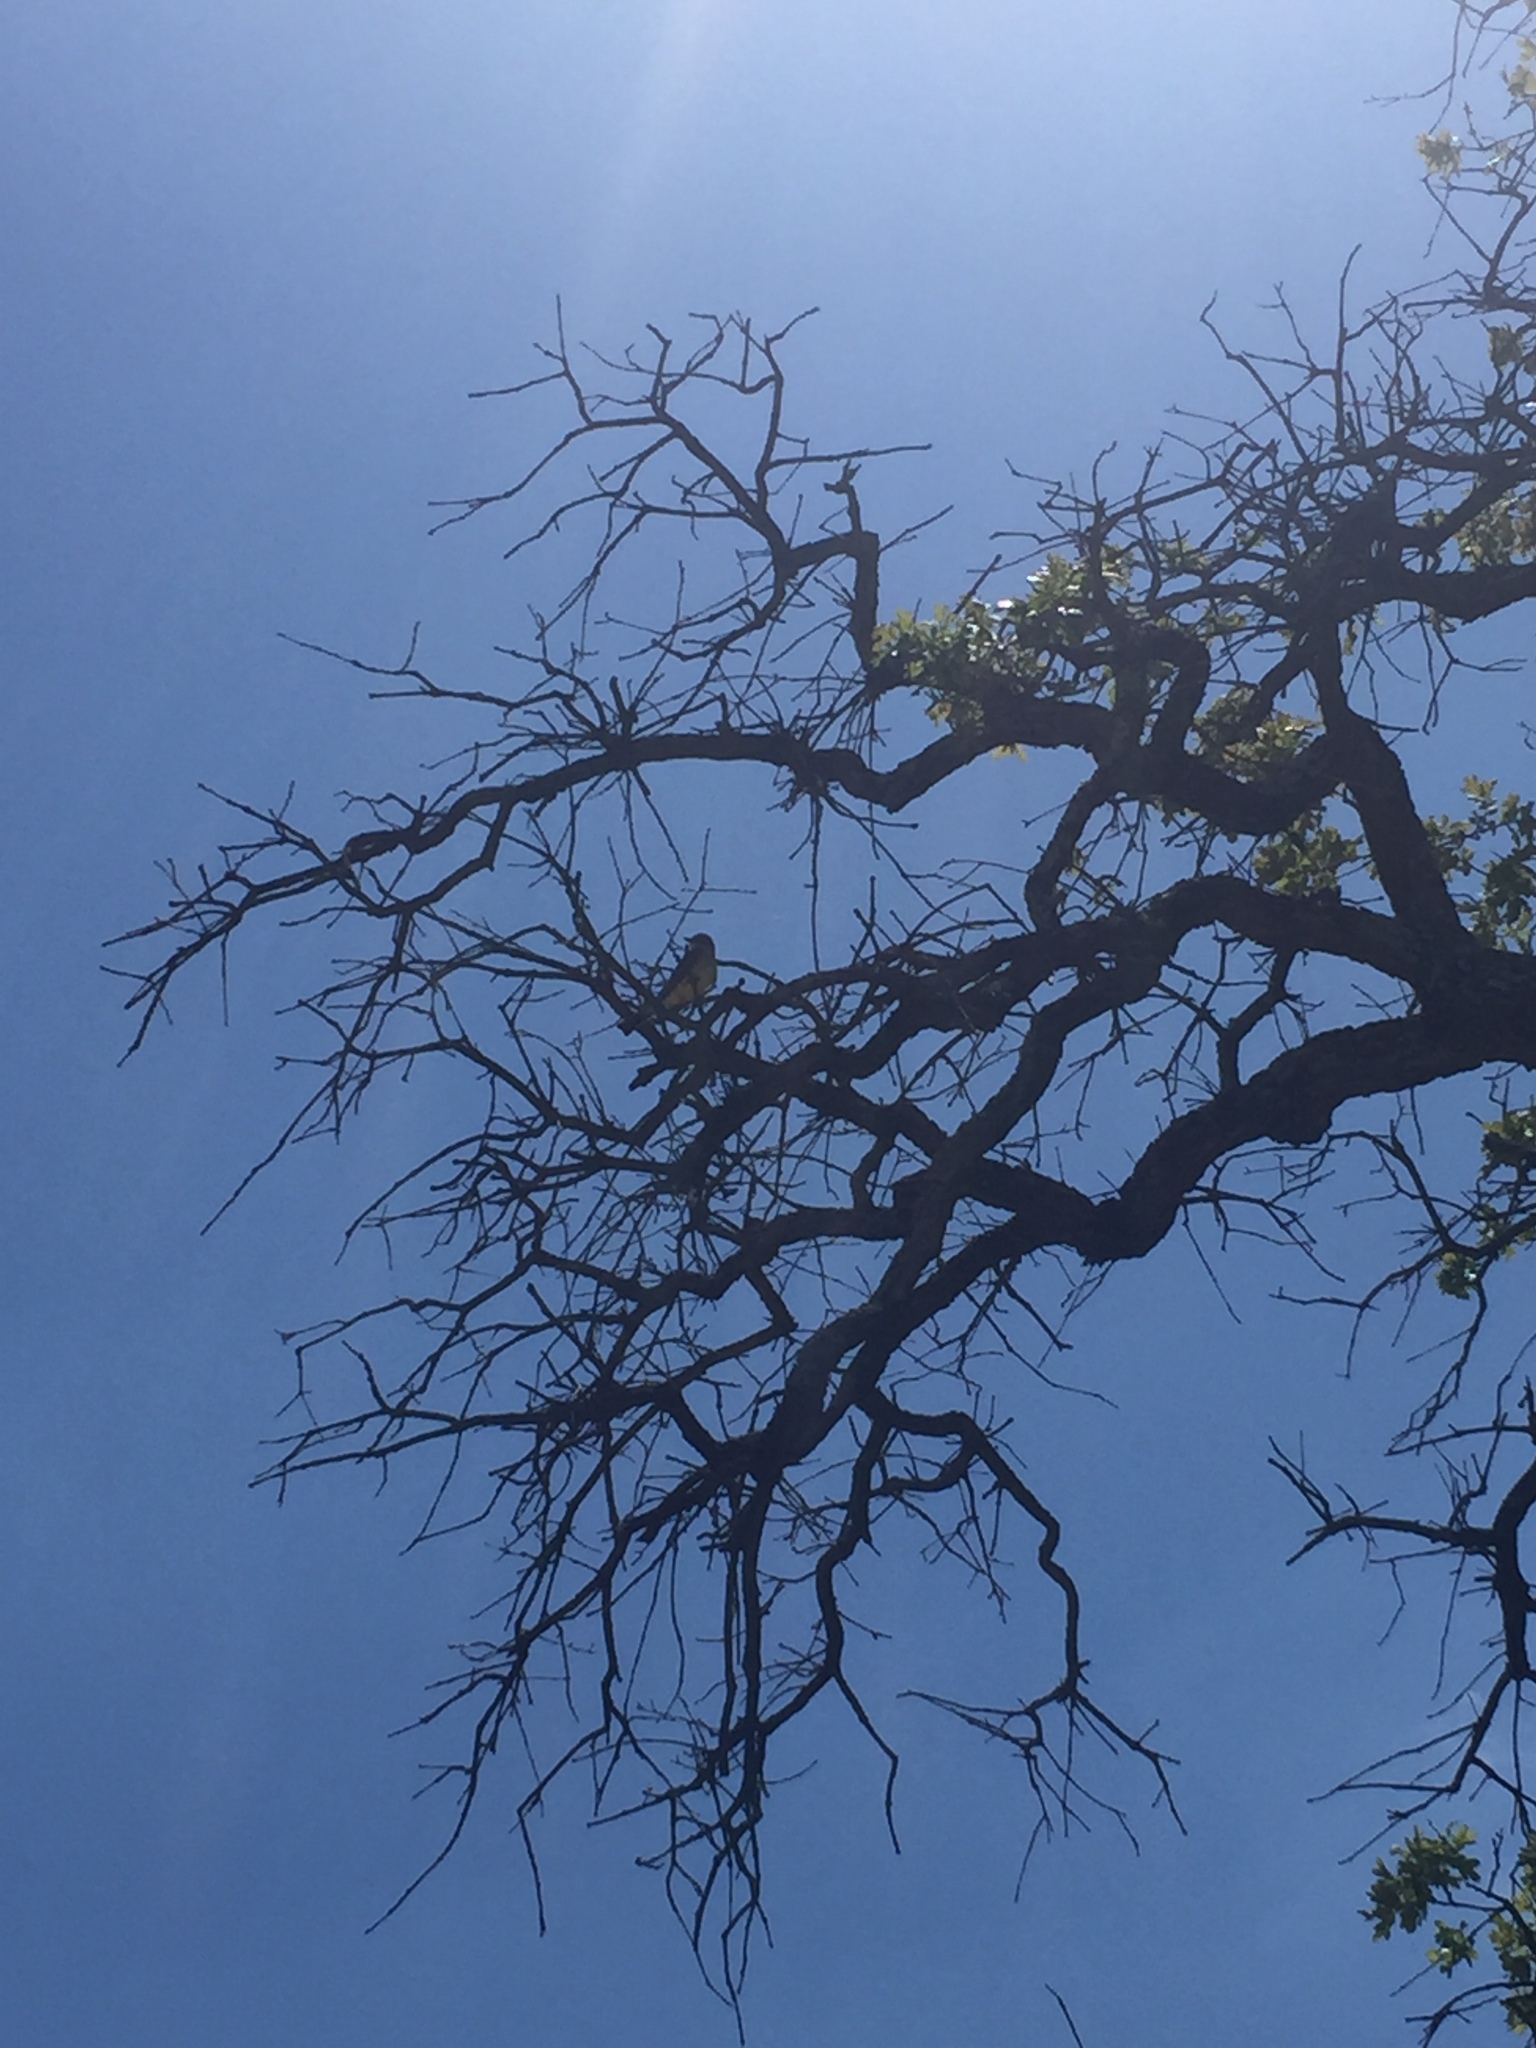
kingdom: Animalia
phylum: Chordata
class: Aves
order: Passeriformes
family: Tyrannidae
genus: Tyrannus
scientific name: Tyrannus verticalis
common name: Western kingbird
